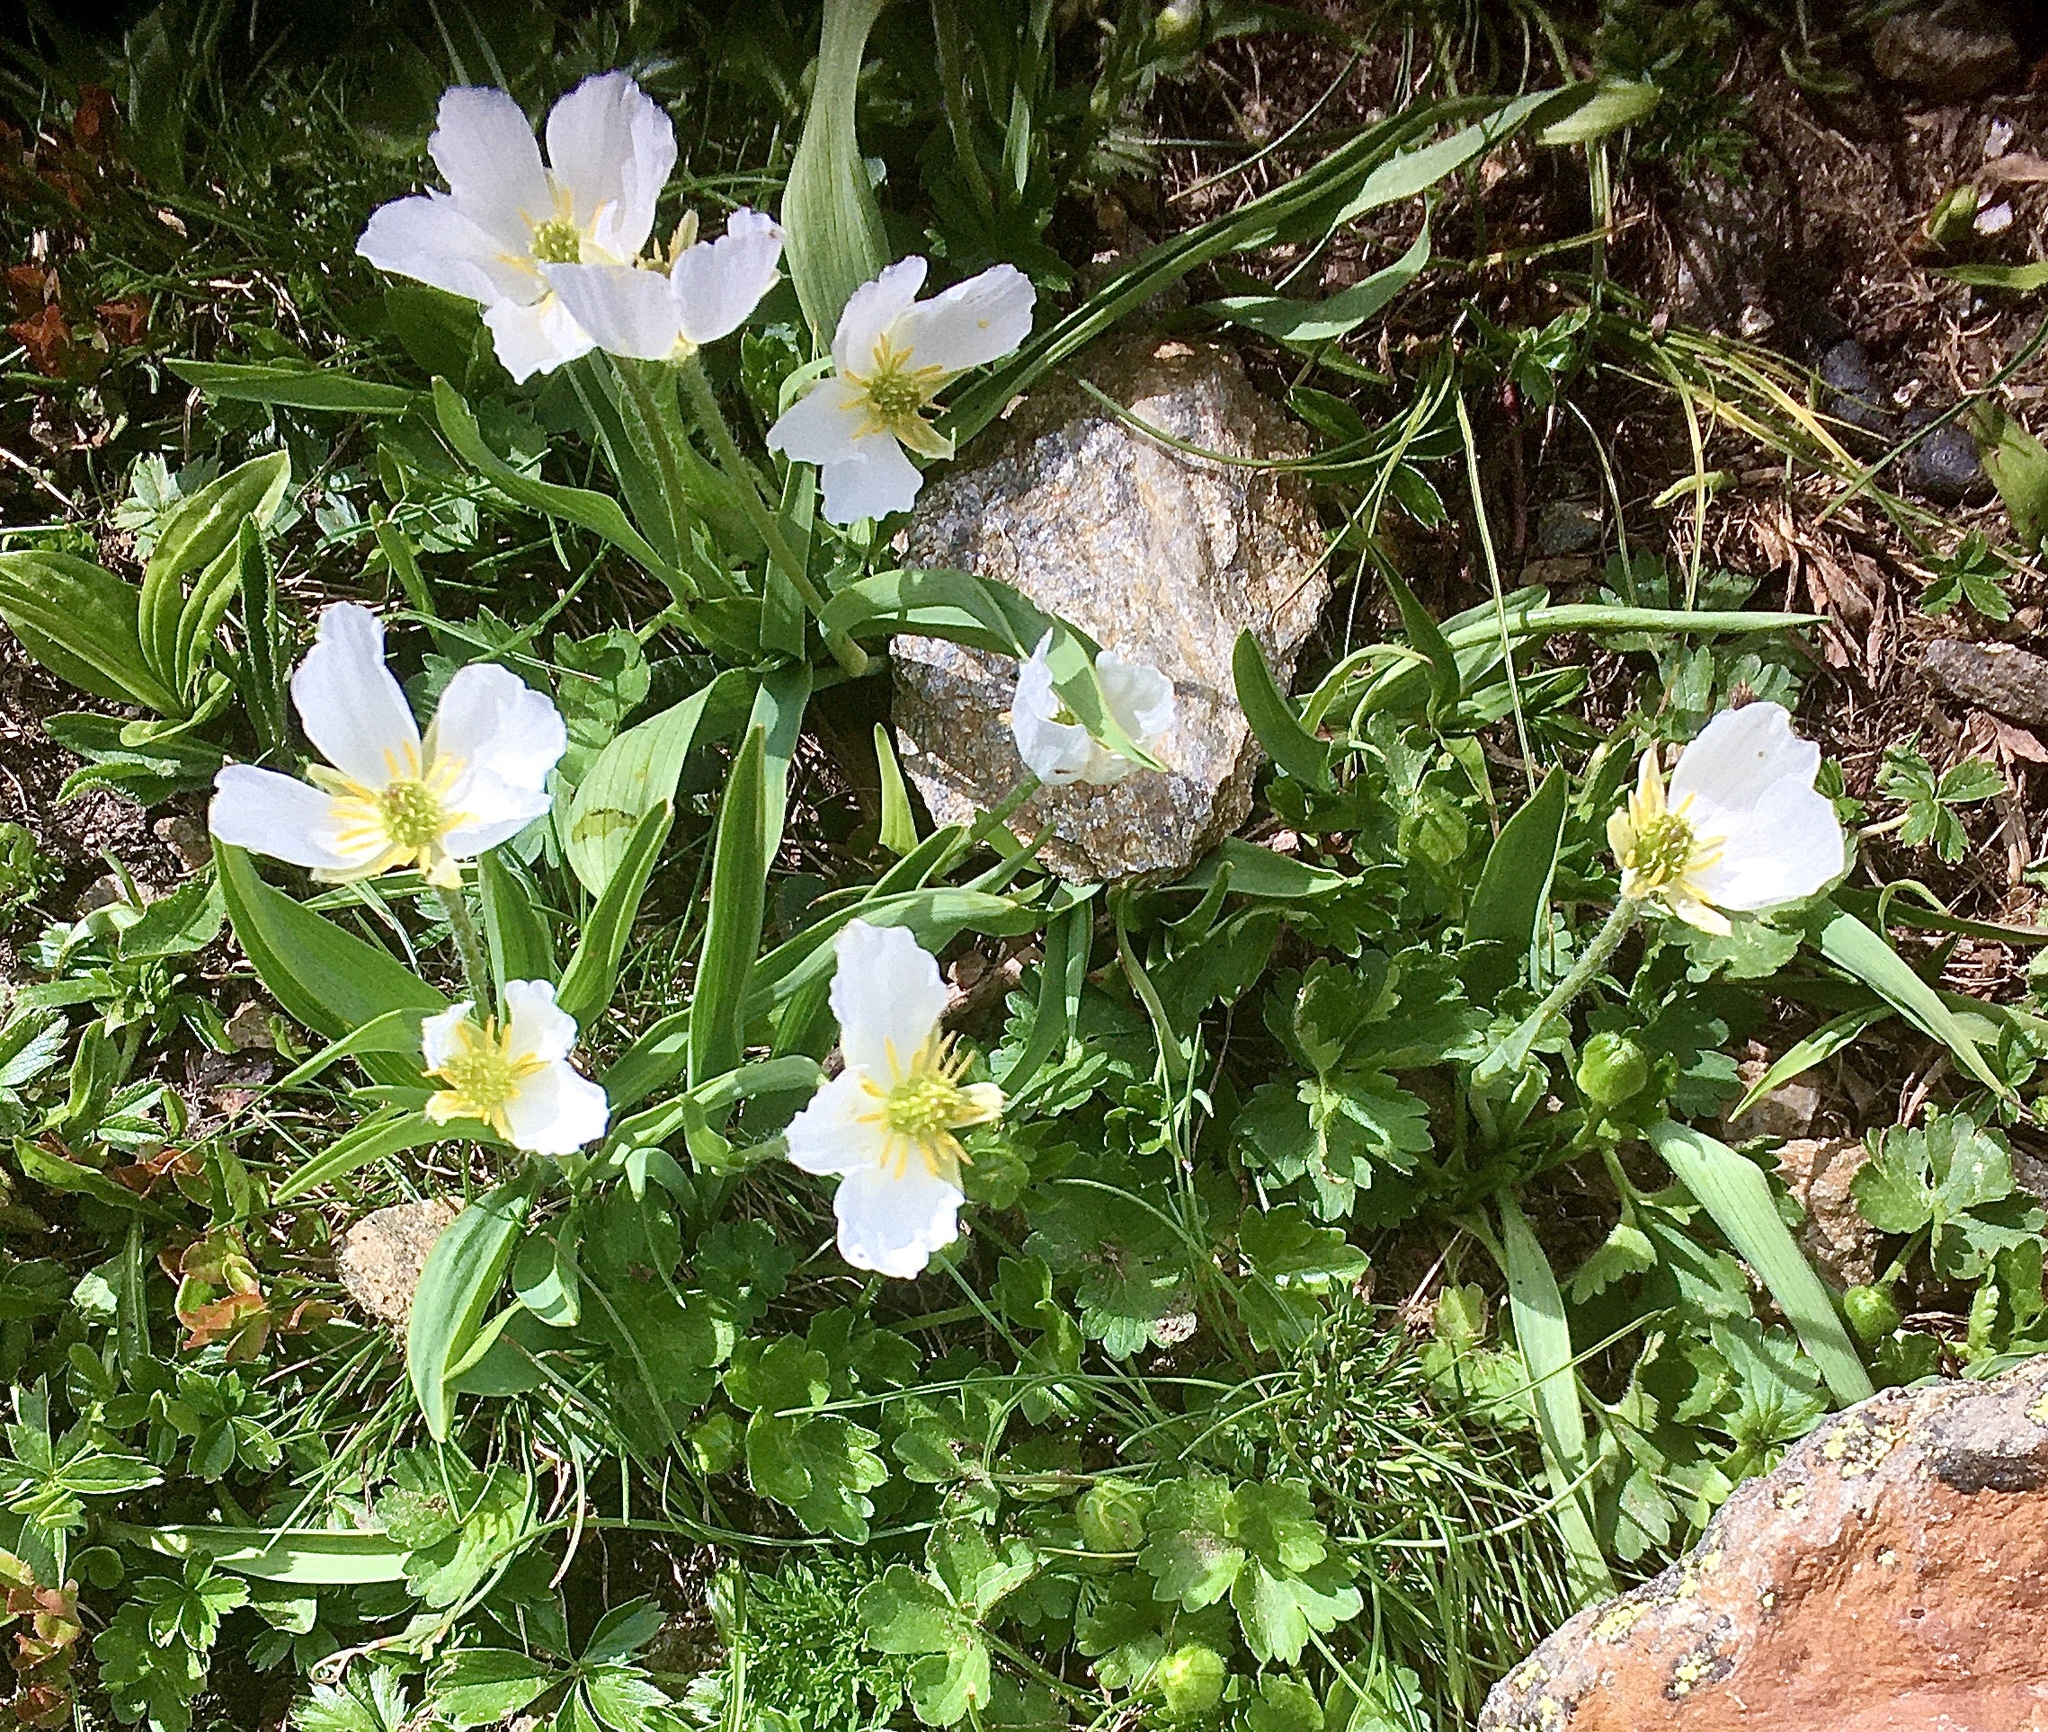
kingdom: Plantae
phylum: Tracheophyta
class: Magnoliopsida
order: Ranunculales
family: Ranunculaceae
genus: Ranunculus
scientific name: Ranunculus kuepferi
